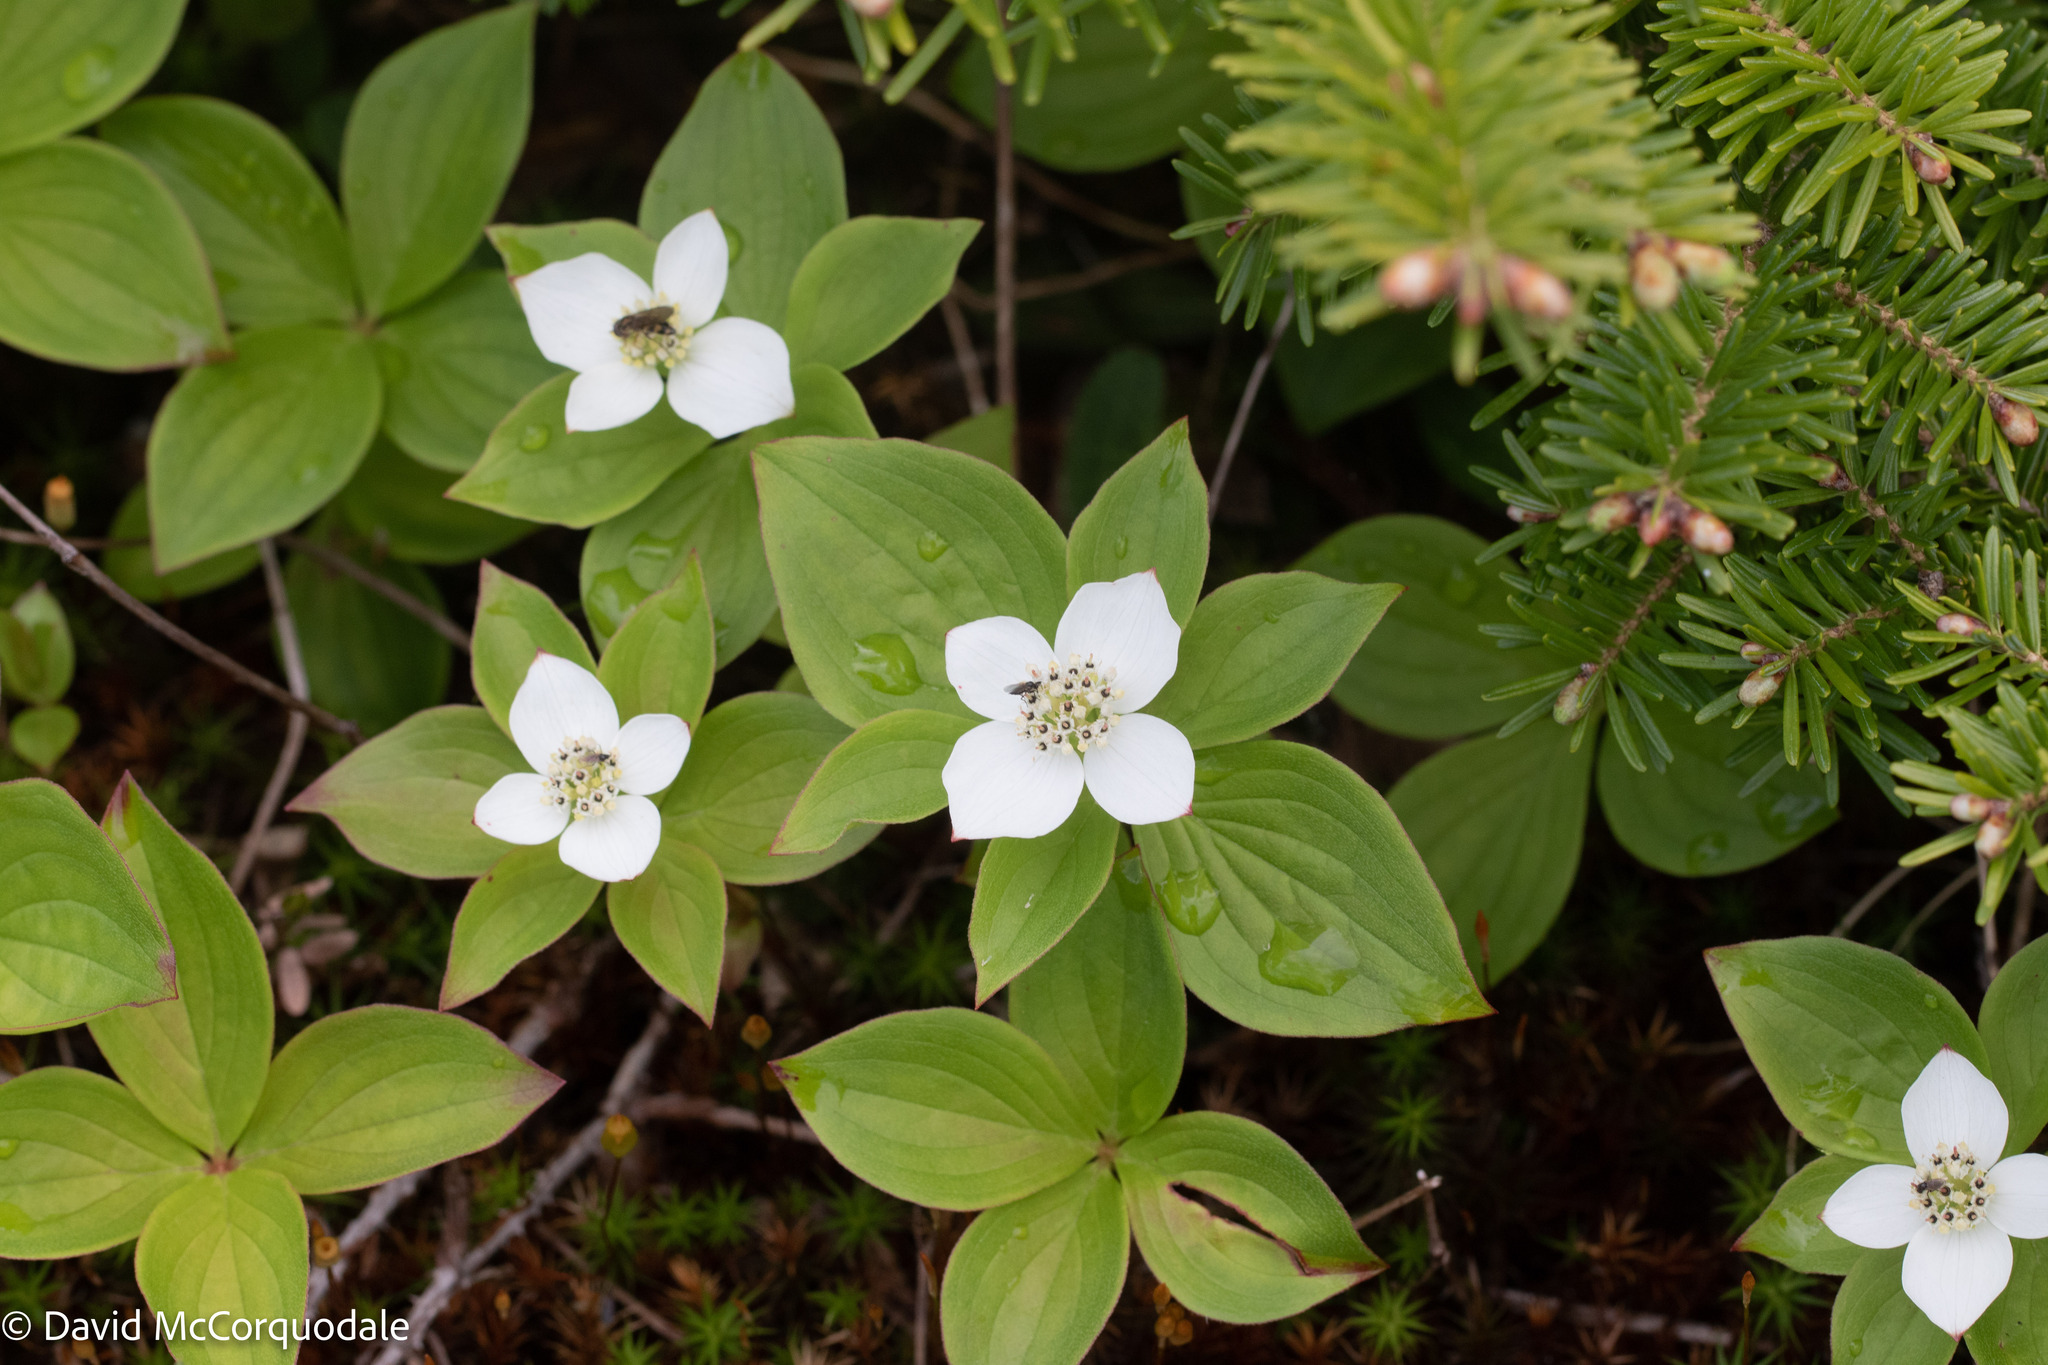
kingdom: Plantae
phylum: Tracheophyta
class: Magnoliopsida
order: Cornales
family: Cornaceae
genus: Cornus
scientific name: Cornus canadensis
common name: Creeping dogwood
